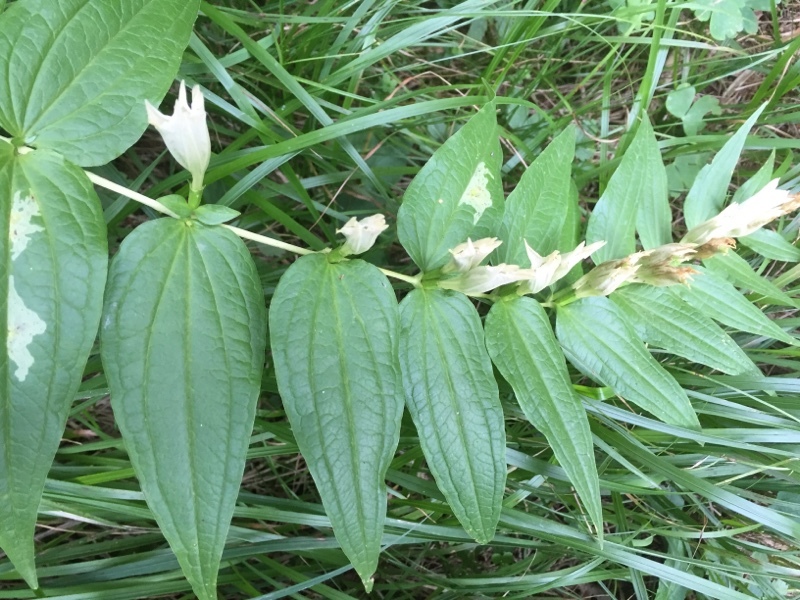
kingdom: Plantae
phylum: Tracheophyta
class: Magnoliopsida
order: Gentianales
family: Gentianaceae
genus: Gentiana
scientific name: Gentiana asclepiadea
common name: Willow gentian
